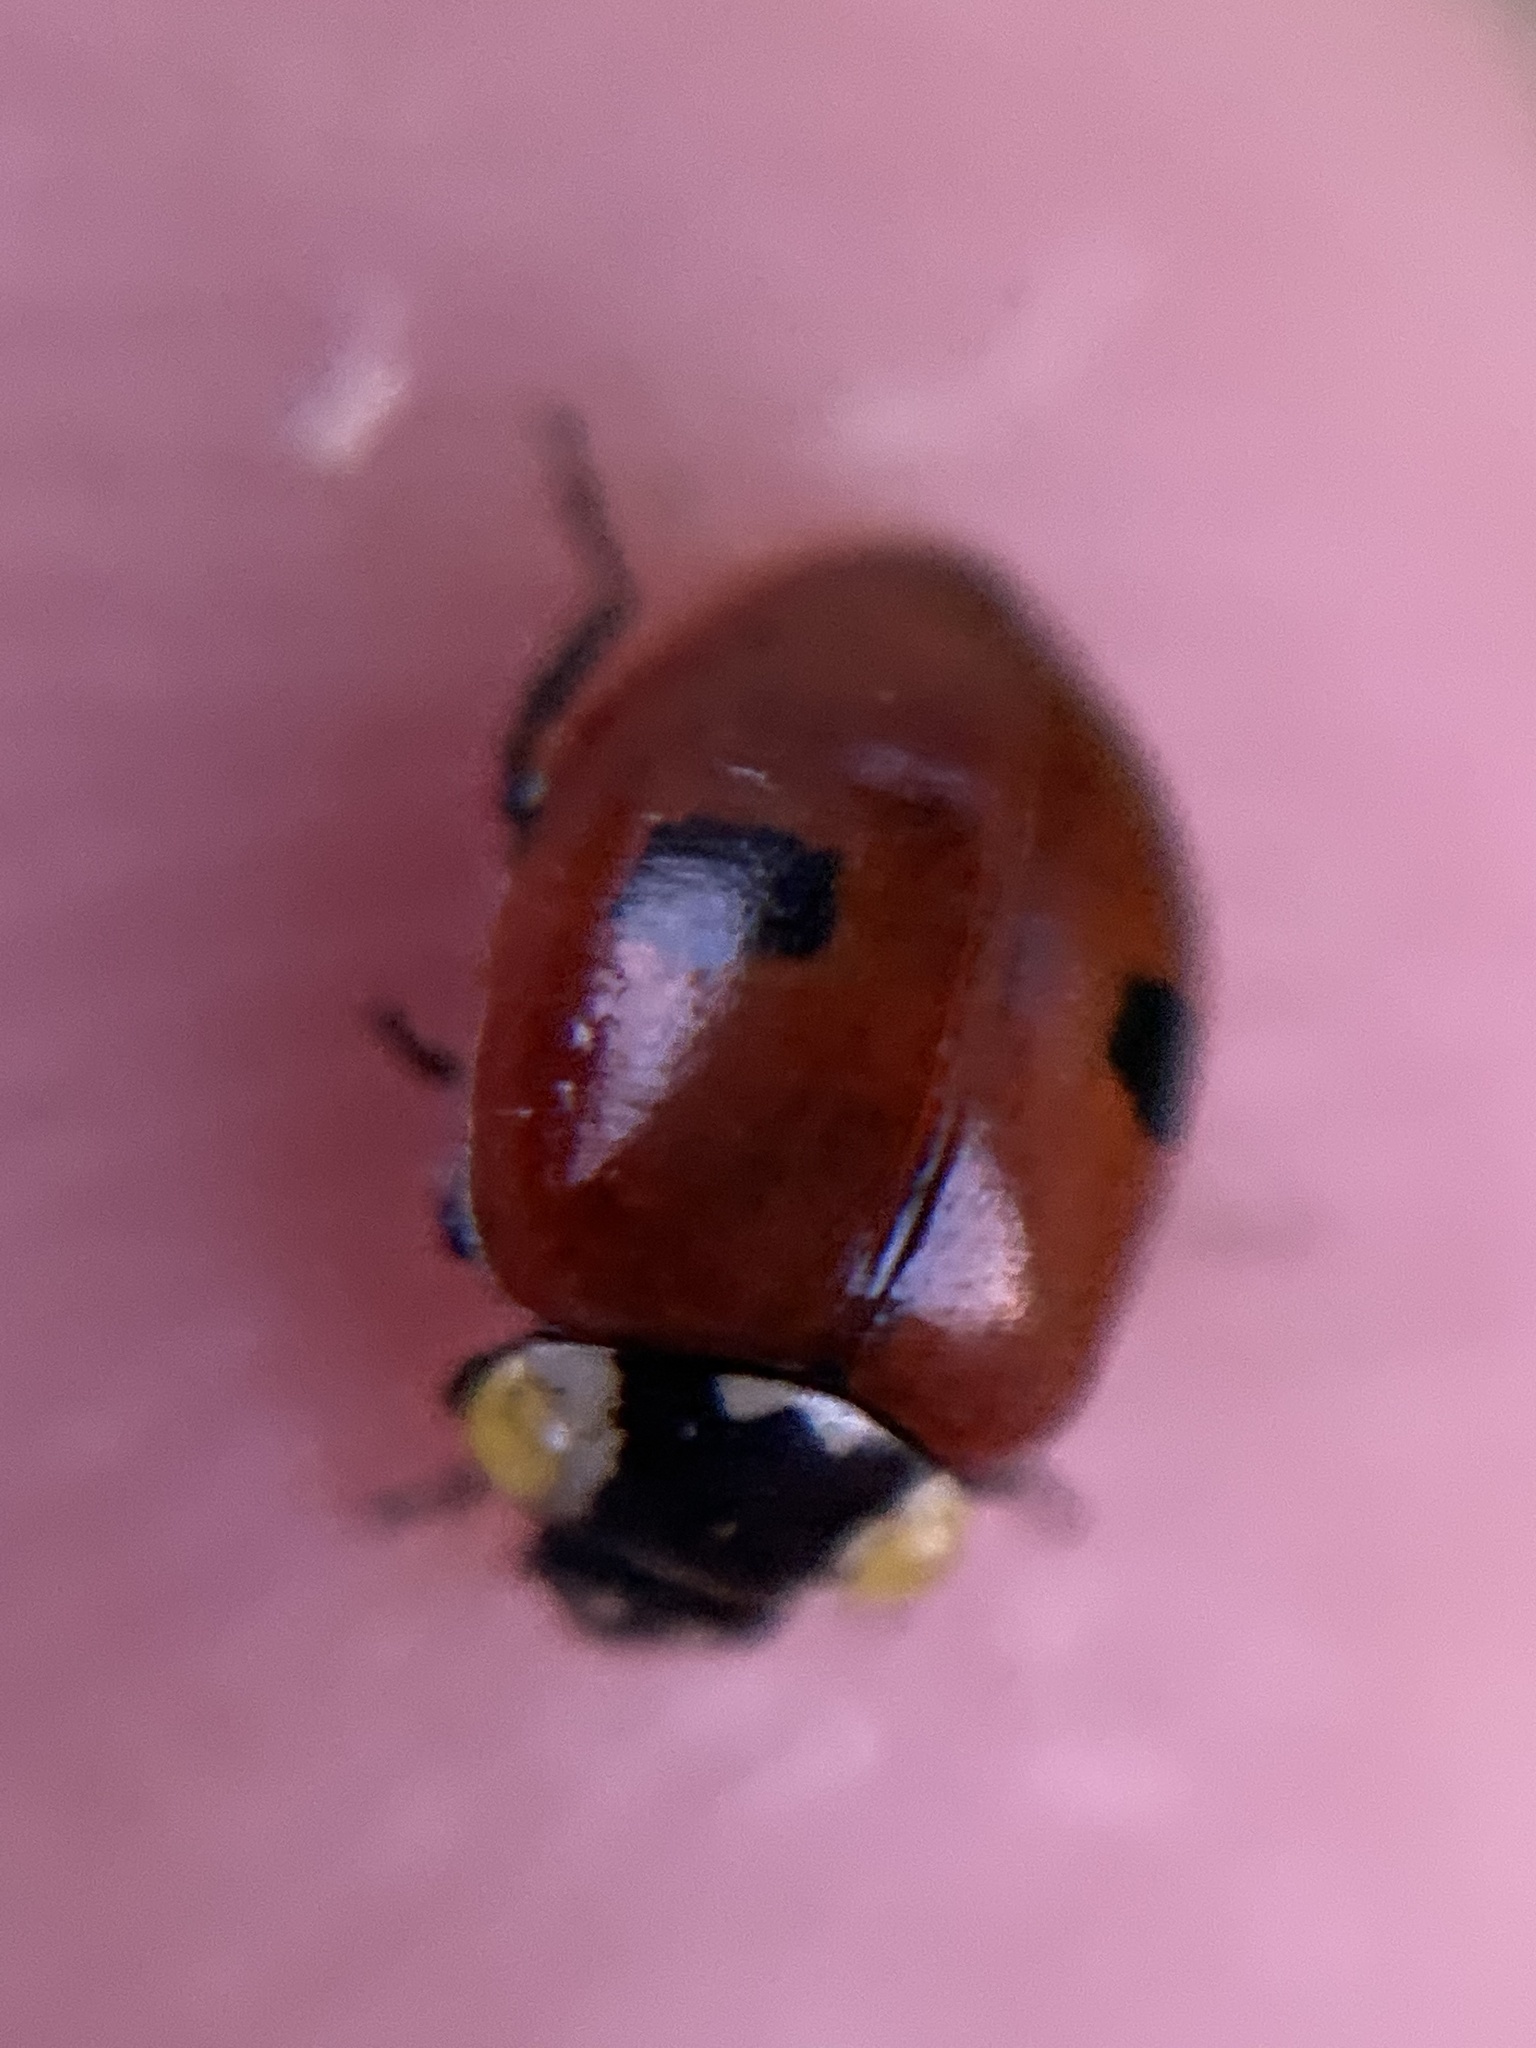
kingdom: Animalia
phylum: Arthropoda
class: Insecta
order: Coleoptera
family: Coccinellidae
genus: Adalia
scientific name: Adalia bipunctata
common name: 2-spot ladybird
